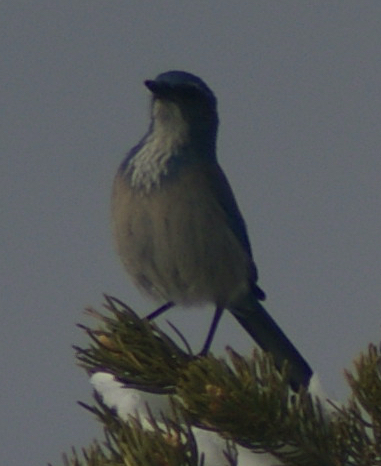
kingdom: Animalia
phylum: Chordata
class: Aves
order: Passeriformes
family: Corvidae
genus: Aphelocoma
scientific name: Aphelocoma woodhouseii
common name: Woodhouse's scrub-jay
